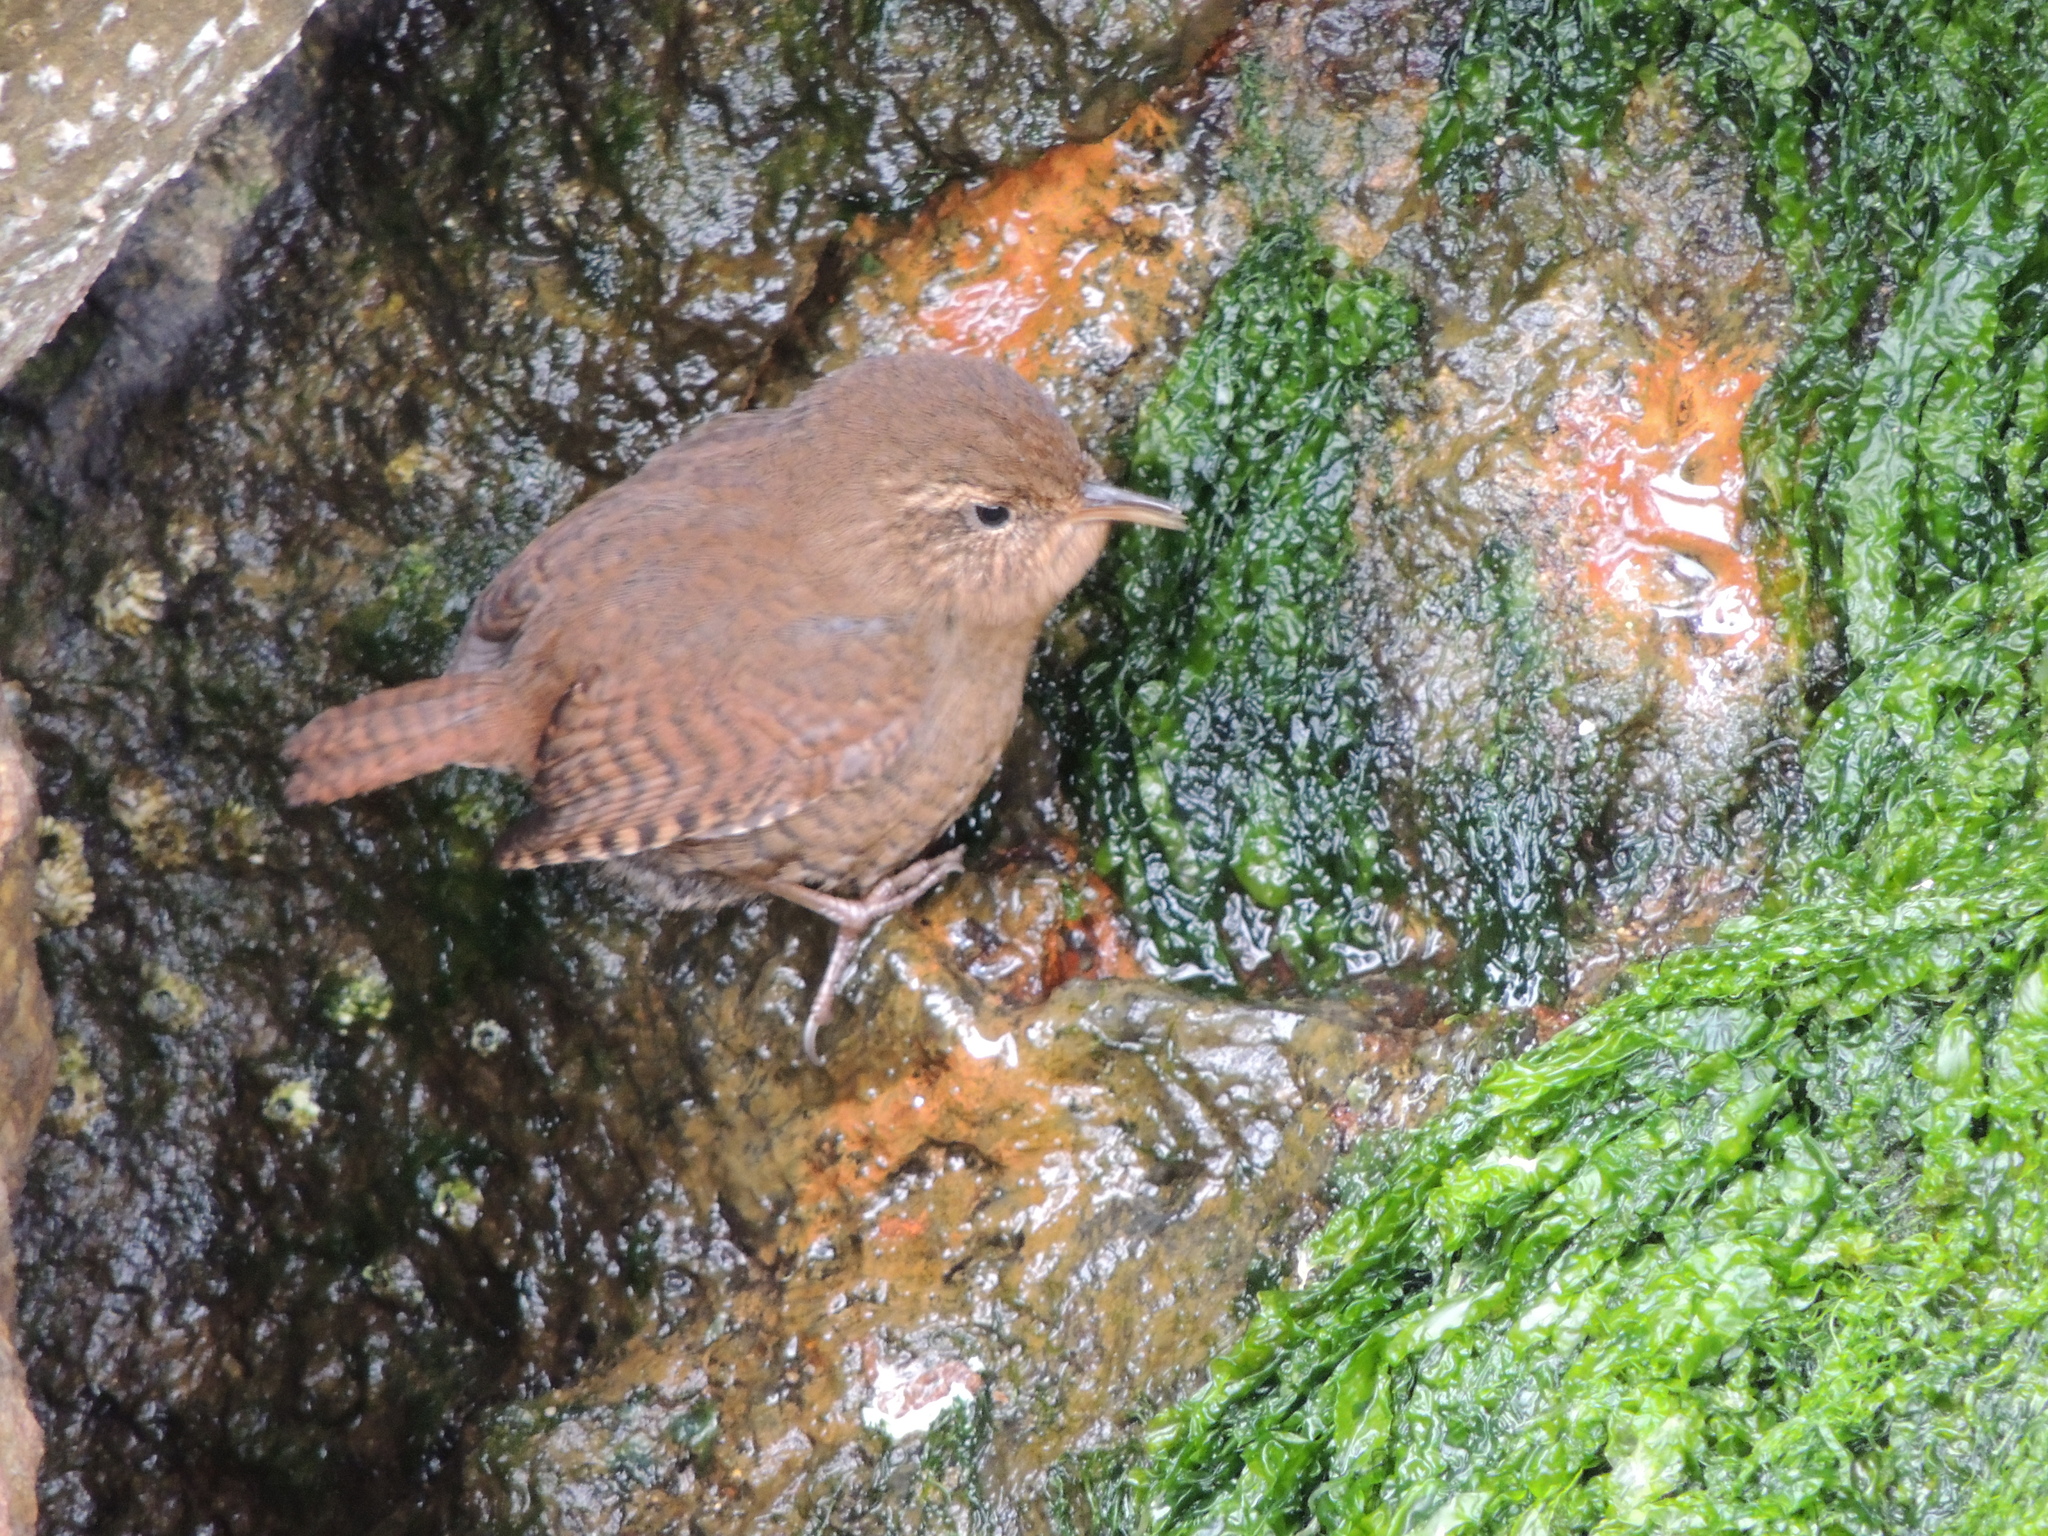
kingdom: Animalia
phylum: Chordata
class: Aves
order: Passeriformes
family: Troglodytidae
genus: Troglodytes
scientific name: Troglodytes pacificus
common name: Pacific wren
